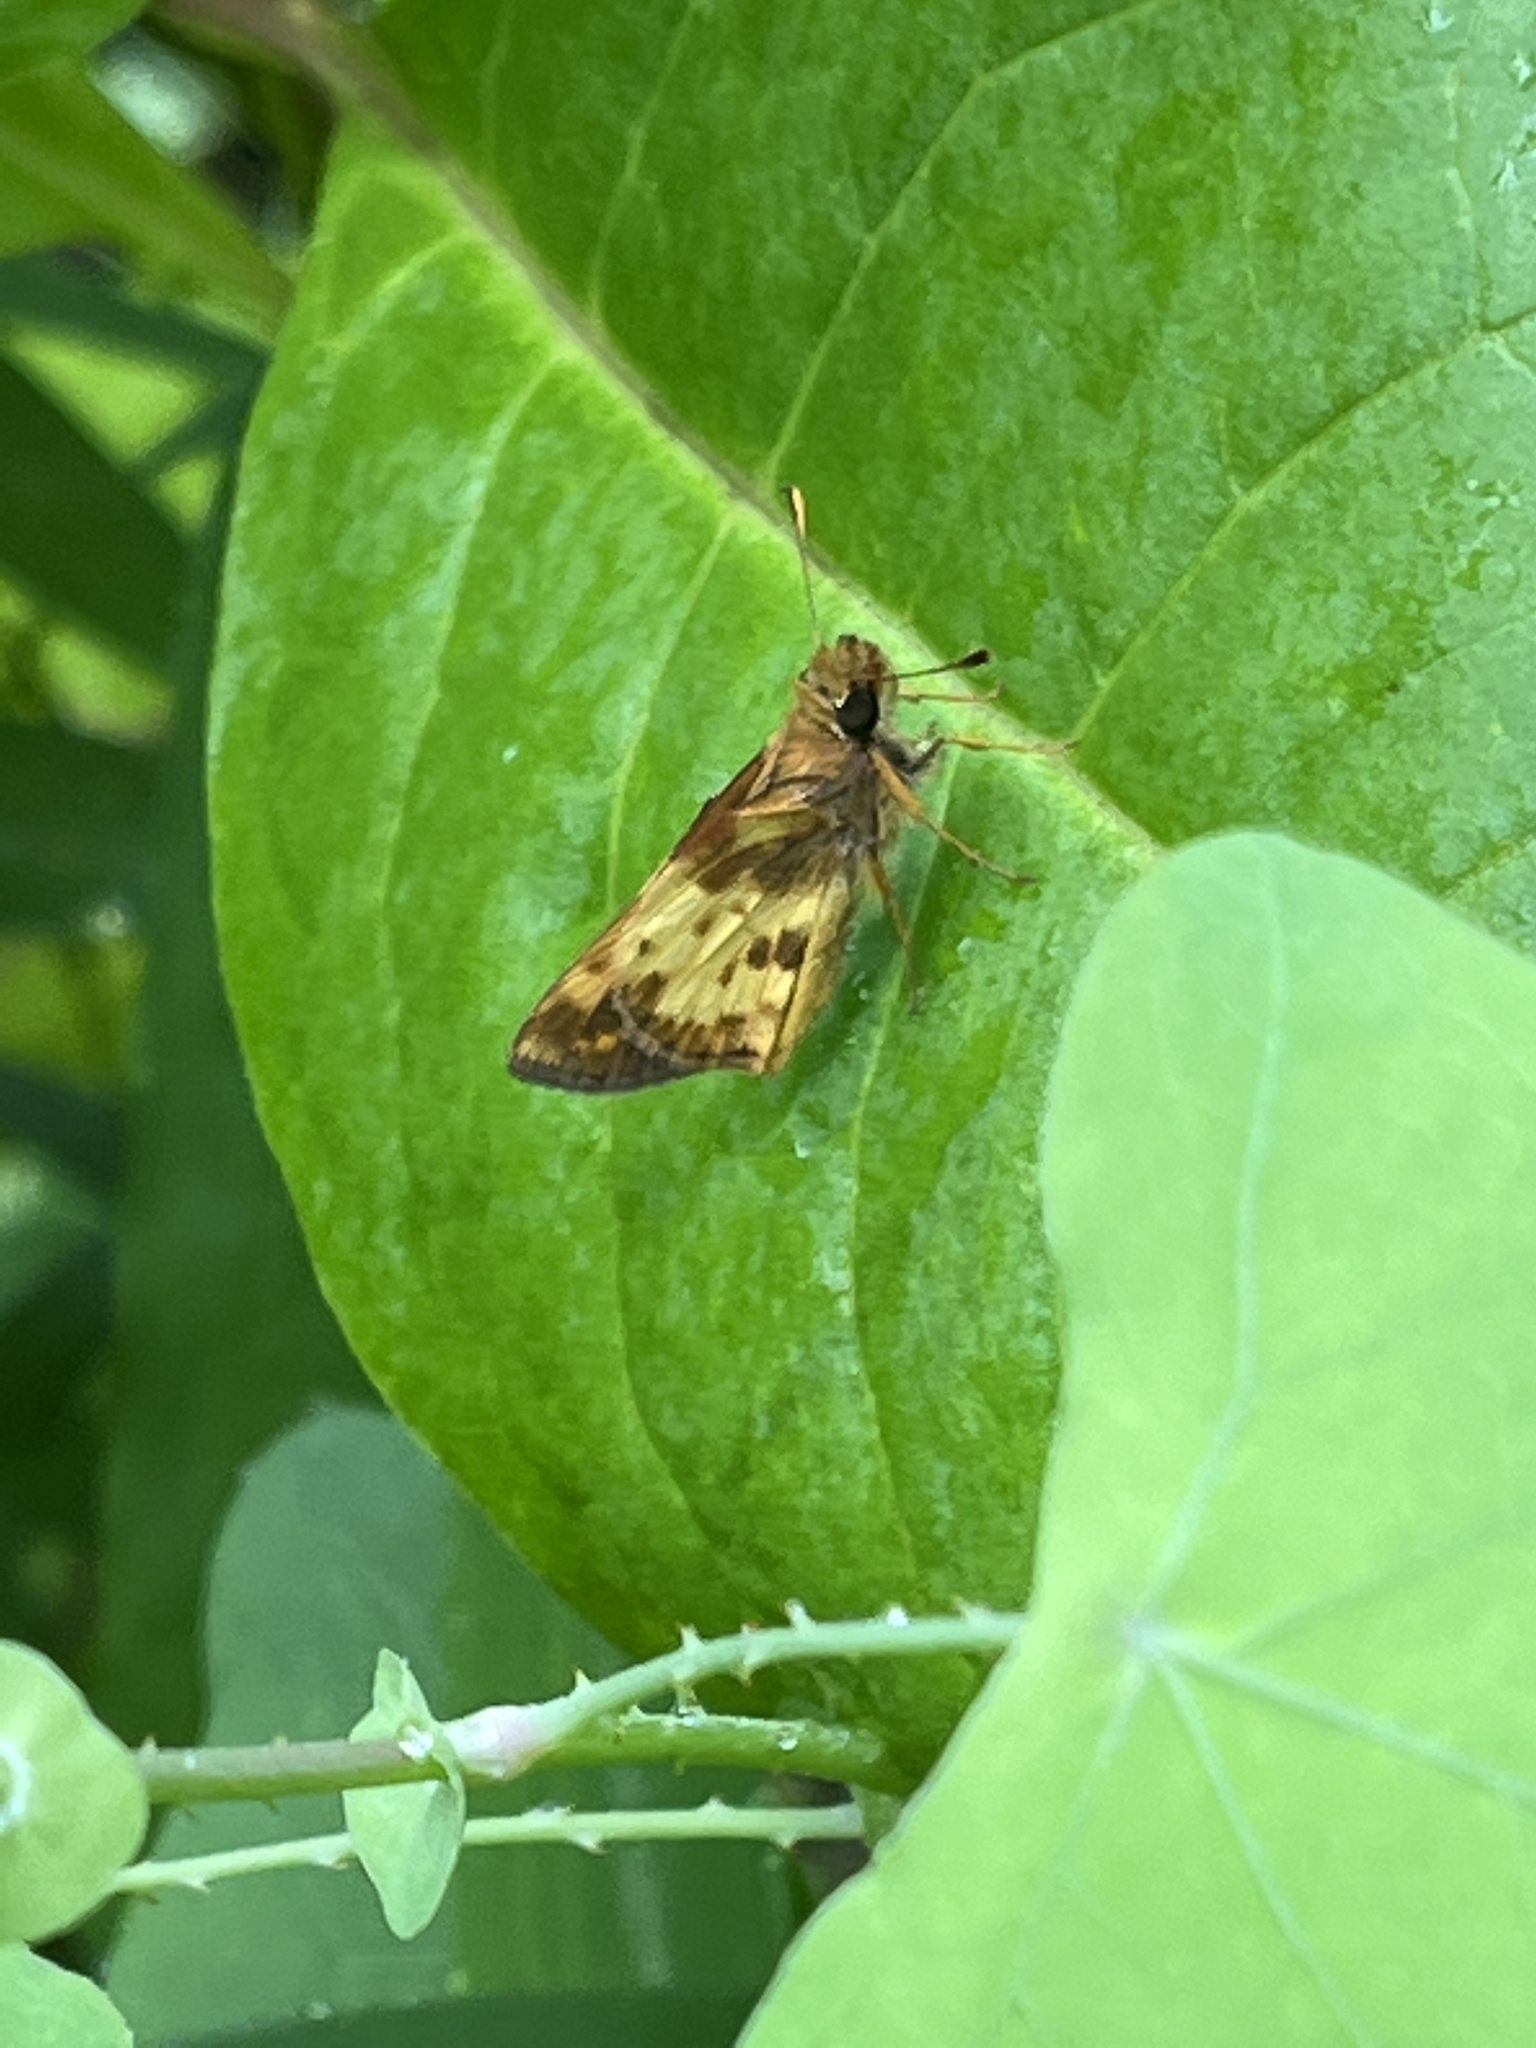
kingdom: Animalia
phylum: Arthropoda
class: Insecta
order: Lepidoptera
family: Hesperiidae
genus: Lon
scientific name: Lon zabulon
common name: Zabulon skipper
